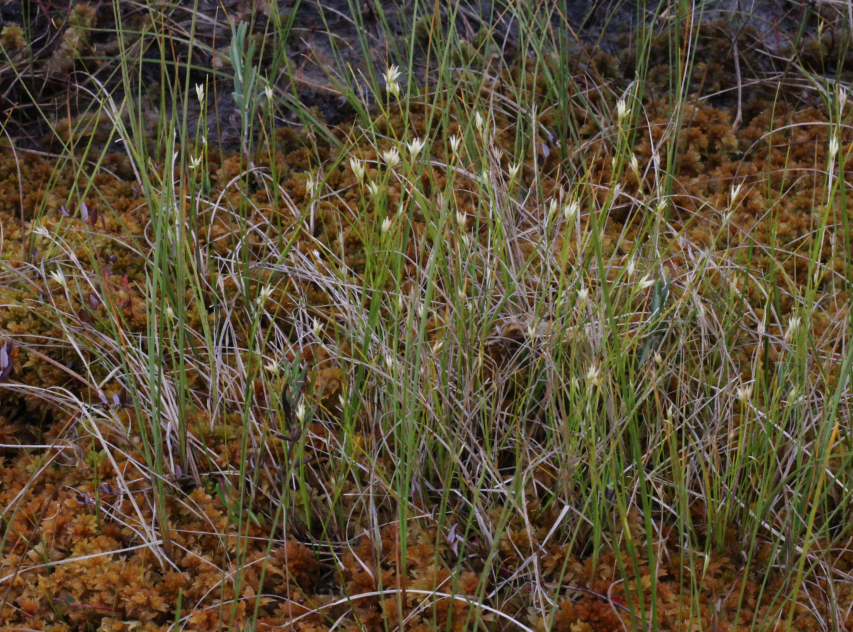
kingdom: Plantae
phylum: Tracheophyta
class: Liliopsida
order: Poales
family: Cyperaceae
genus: Rhynchospora
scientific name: Rhynchospora alba
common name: White beak-sedge
